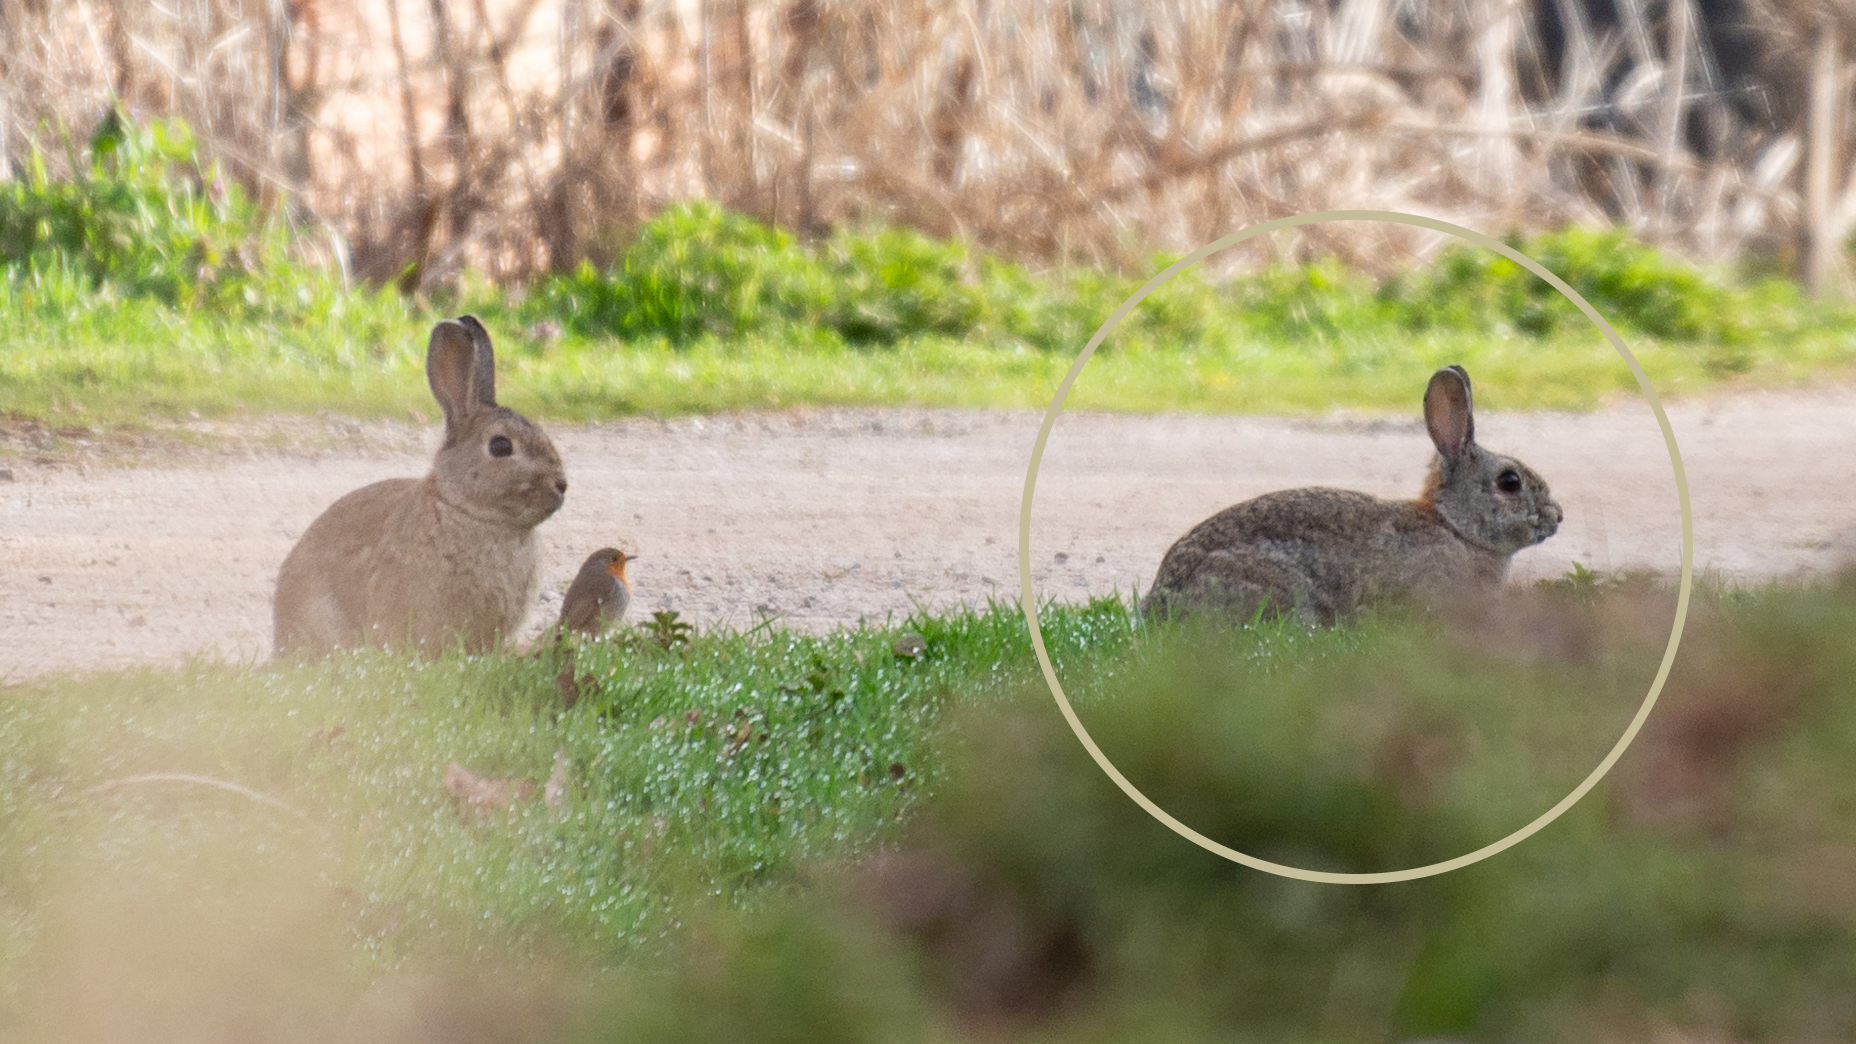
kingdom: Animalia
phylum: Chordata
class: Mammalia
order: Lagomorpha
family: Leporidae
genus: Oryctolagus
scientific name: Oryctolagus cuniculus
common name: European rabbit
